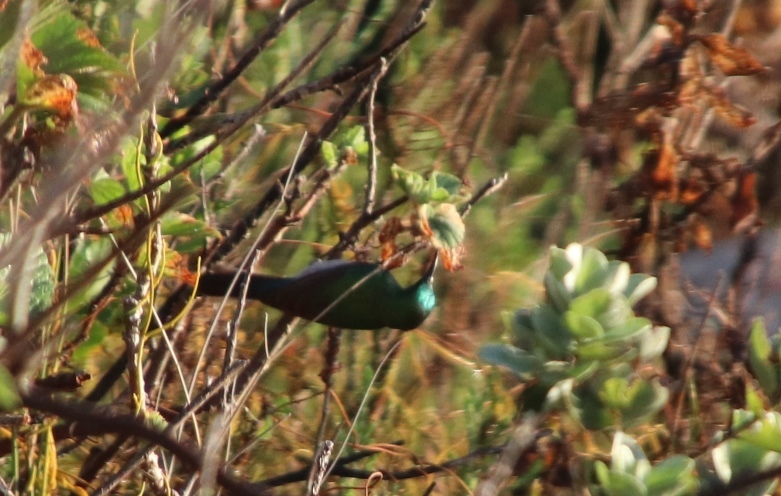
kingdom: Animalia
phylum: Chordata
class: Aves
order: Passeriformes
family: Nectariniidae
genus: Cinnyris
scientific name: Cinnyris chalybeus
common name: Southern double-collared sunbird
